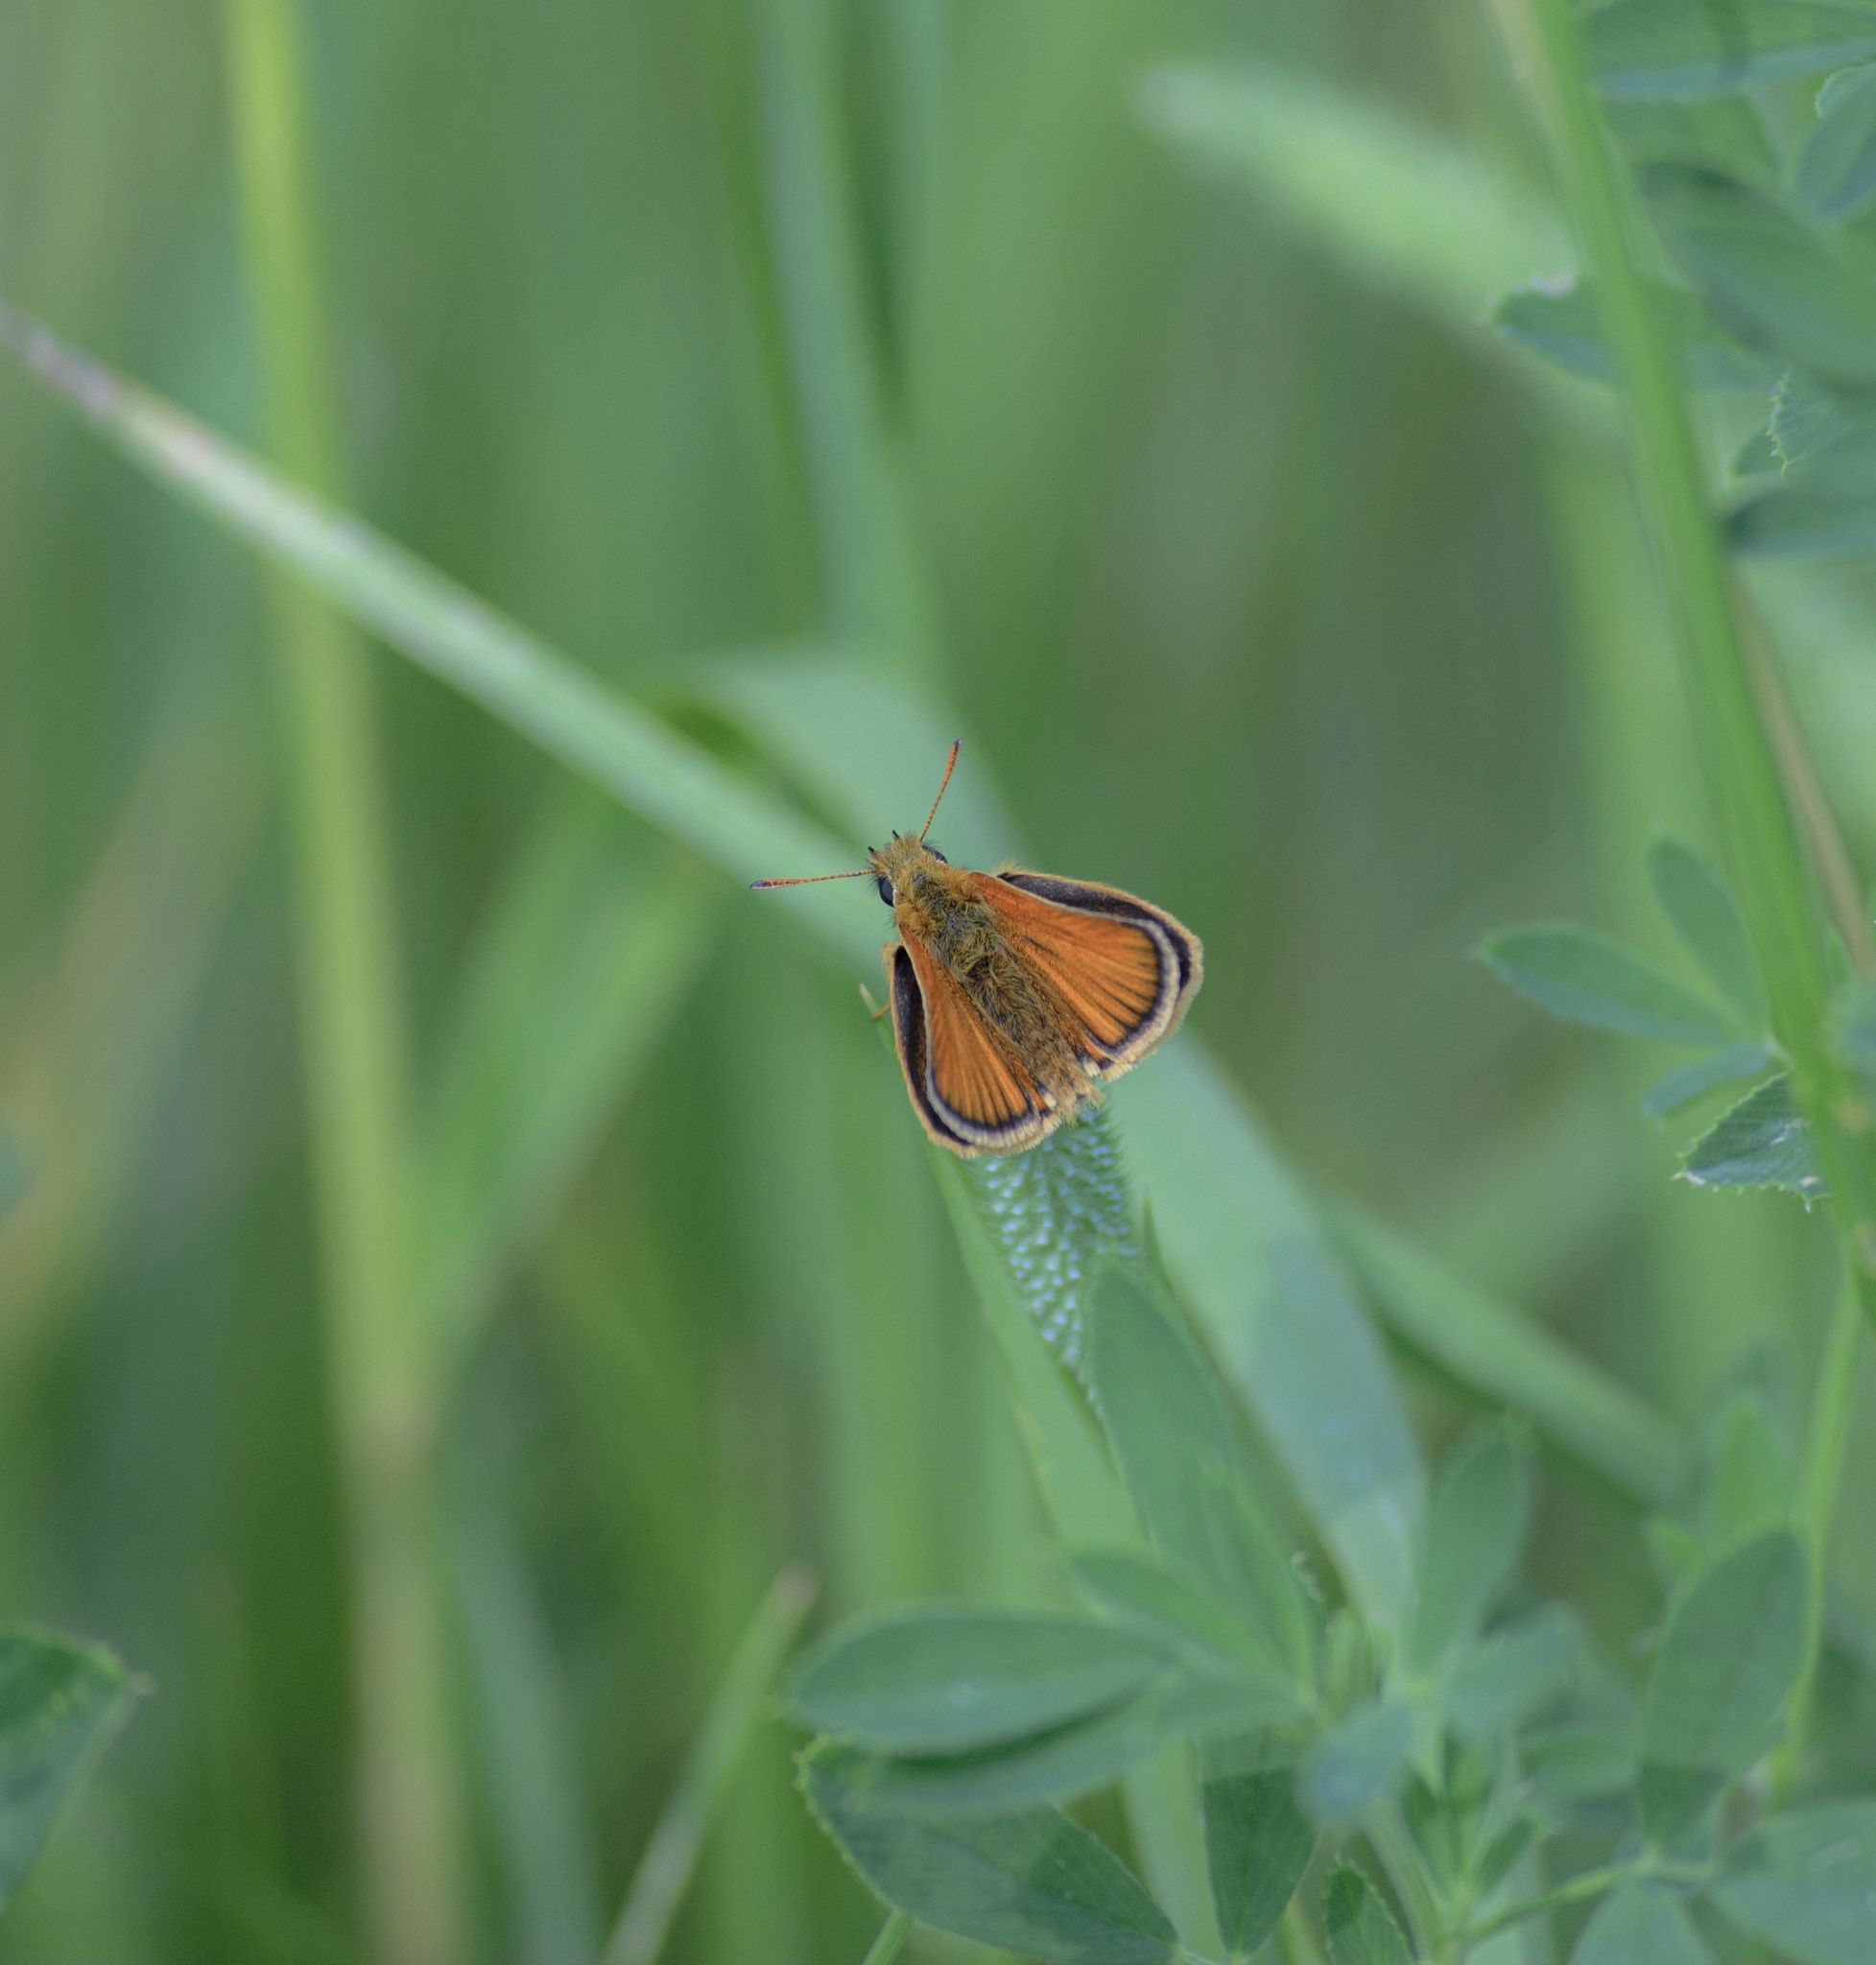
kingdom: Animalia
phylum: Arthropoda
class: Insecta
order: Lepidoptera
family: Hesperiidae
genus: Thymelicus
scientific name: Thymelicus lineola
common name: Essex skipper
